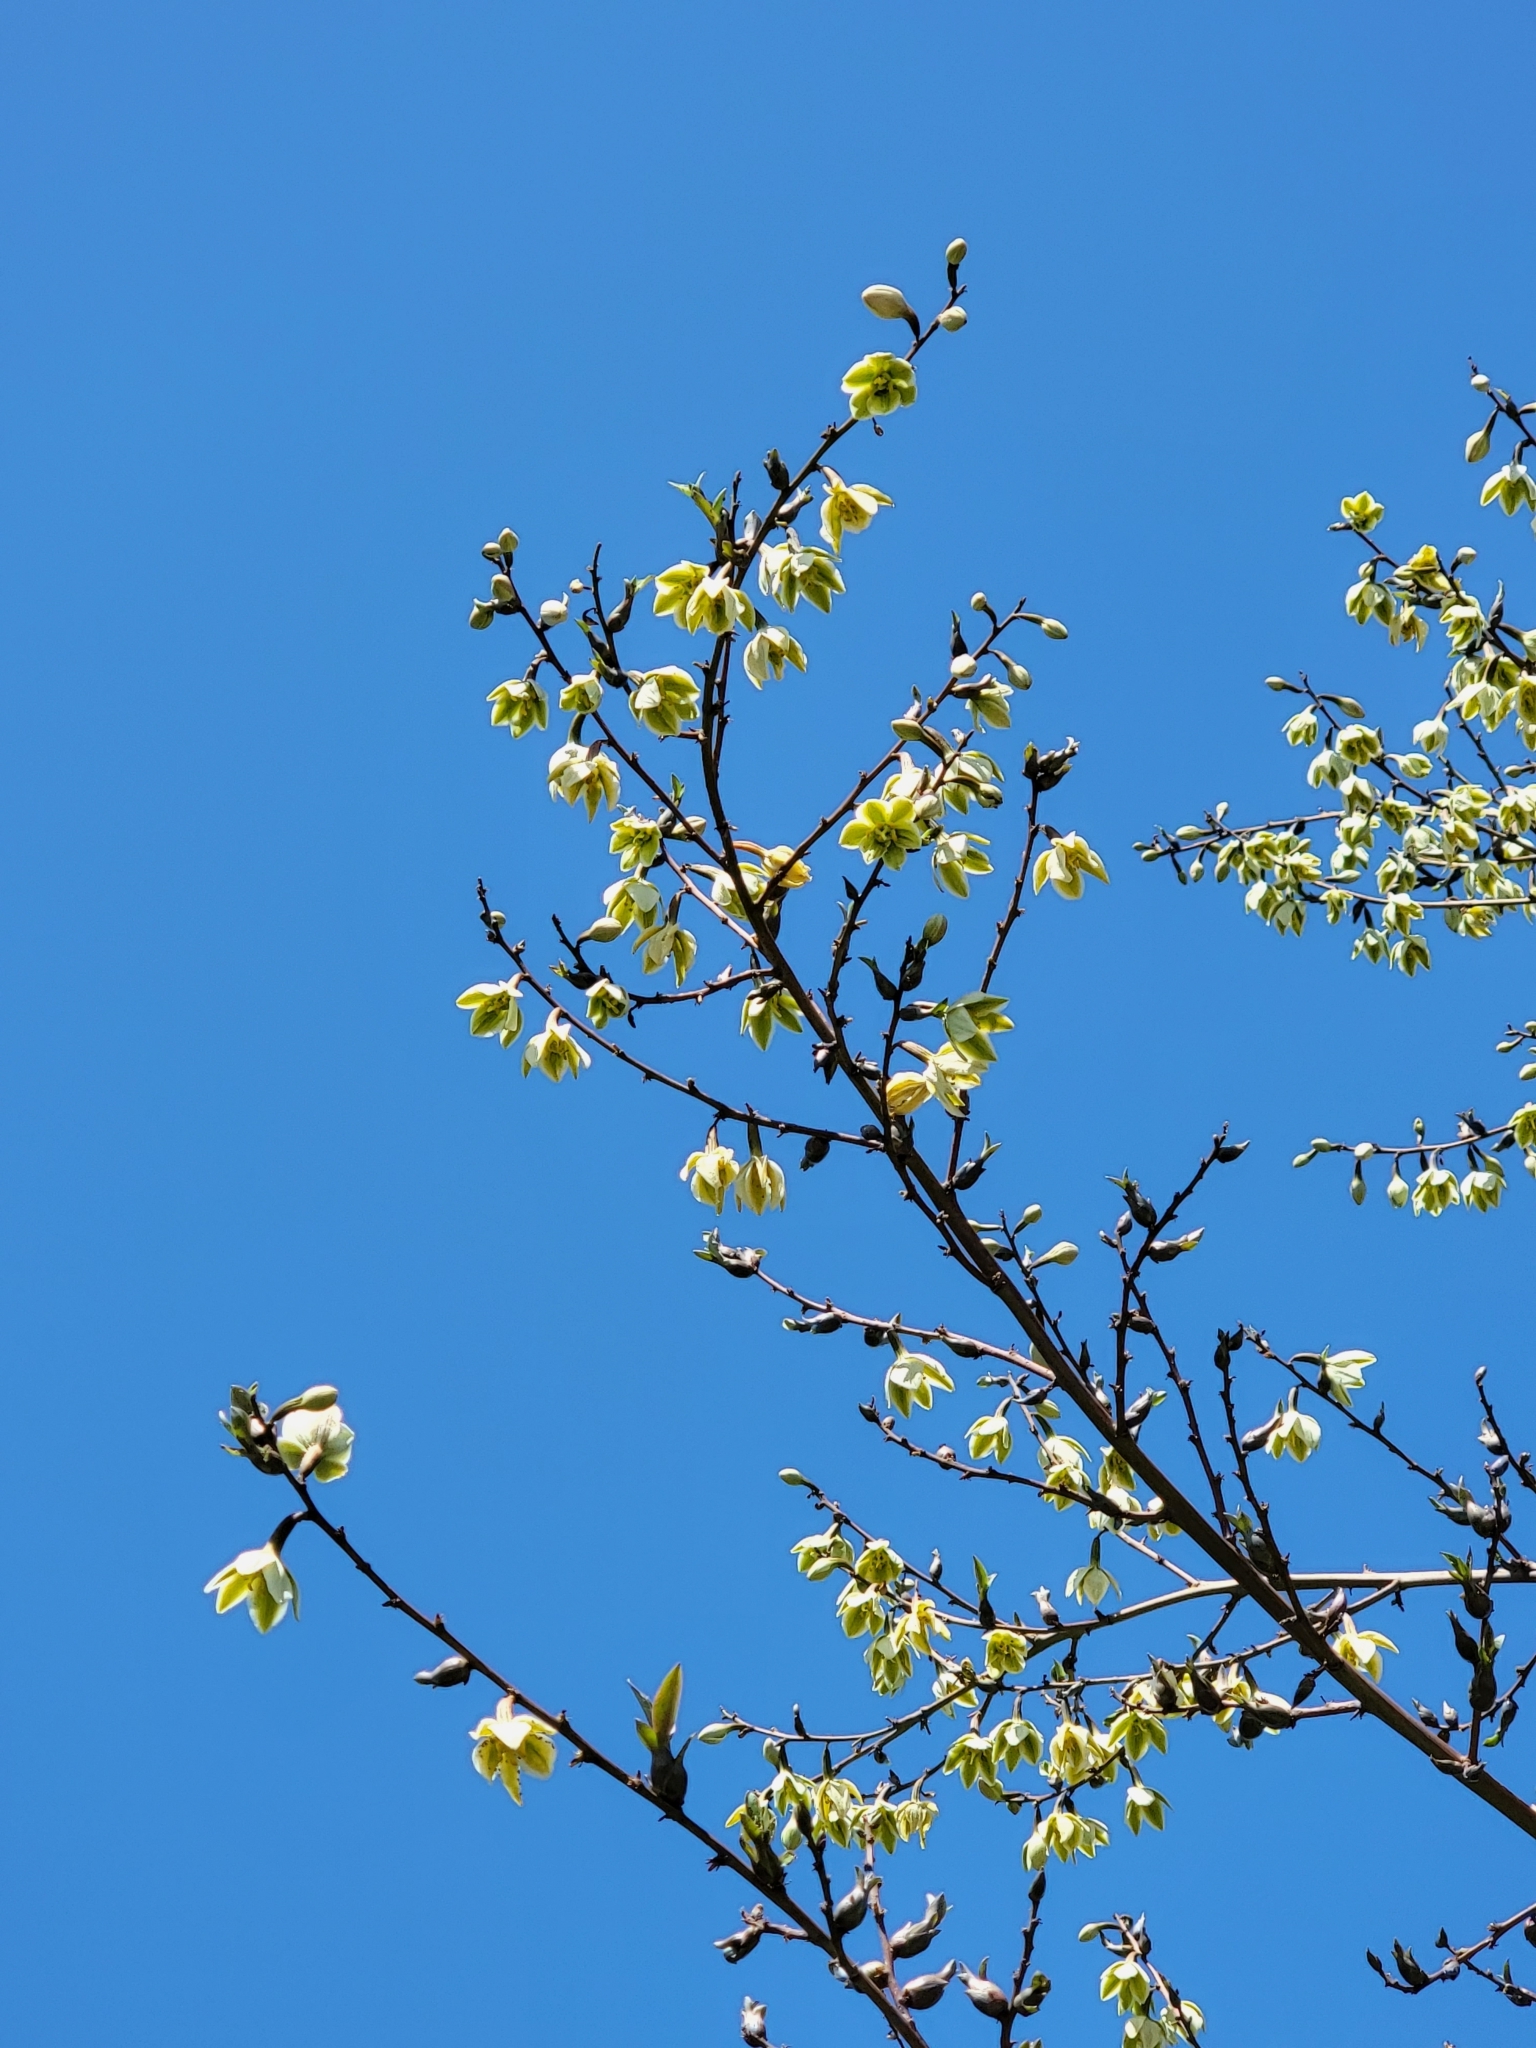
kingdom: Plantae
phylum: Tracheophyta
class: Liliopsida
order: Asparagales
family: Asparagaceae
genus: Furcraea
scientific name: Furcraea foetida
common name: Mauritius hemp
